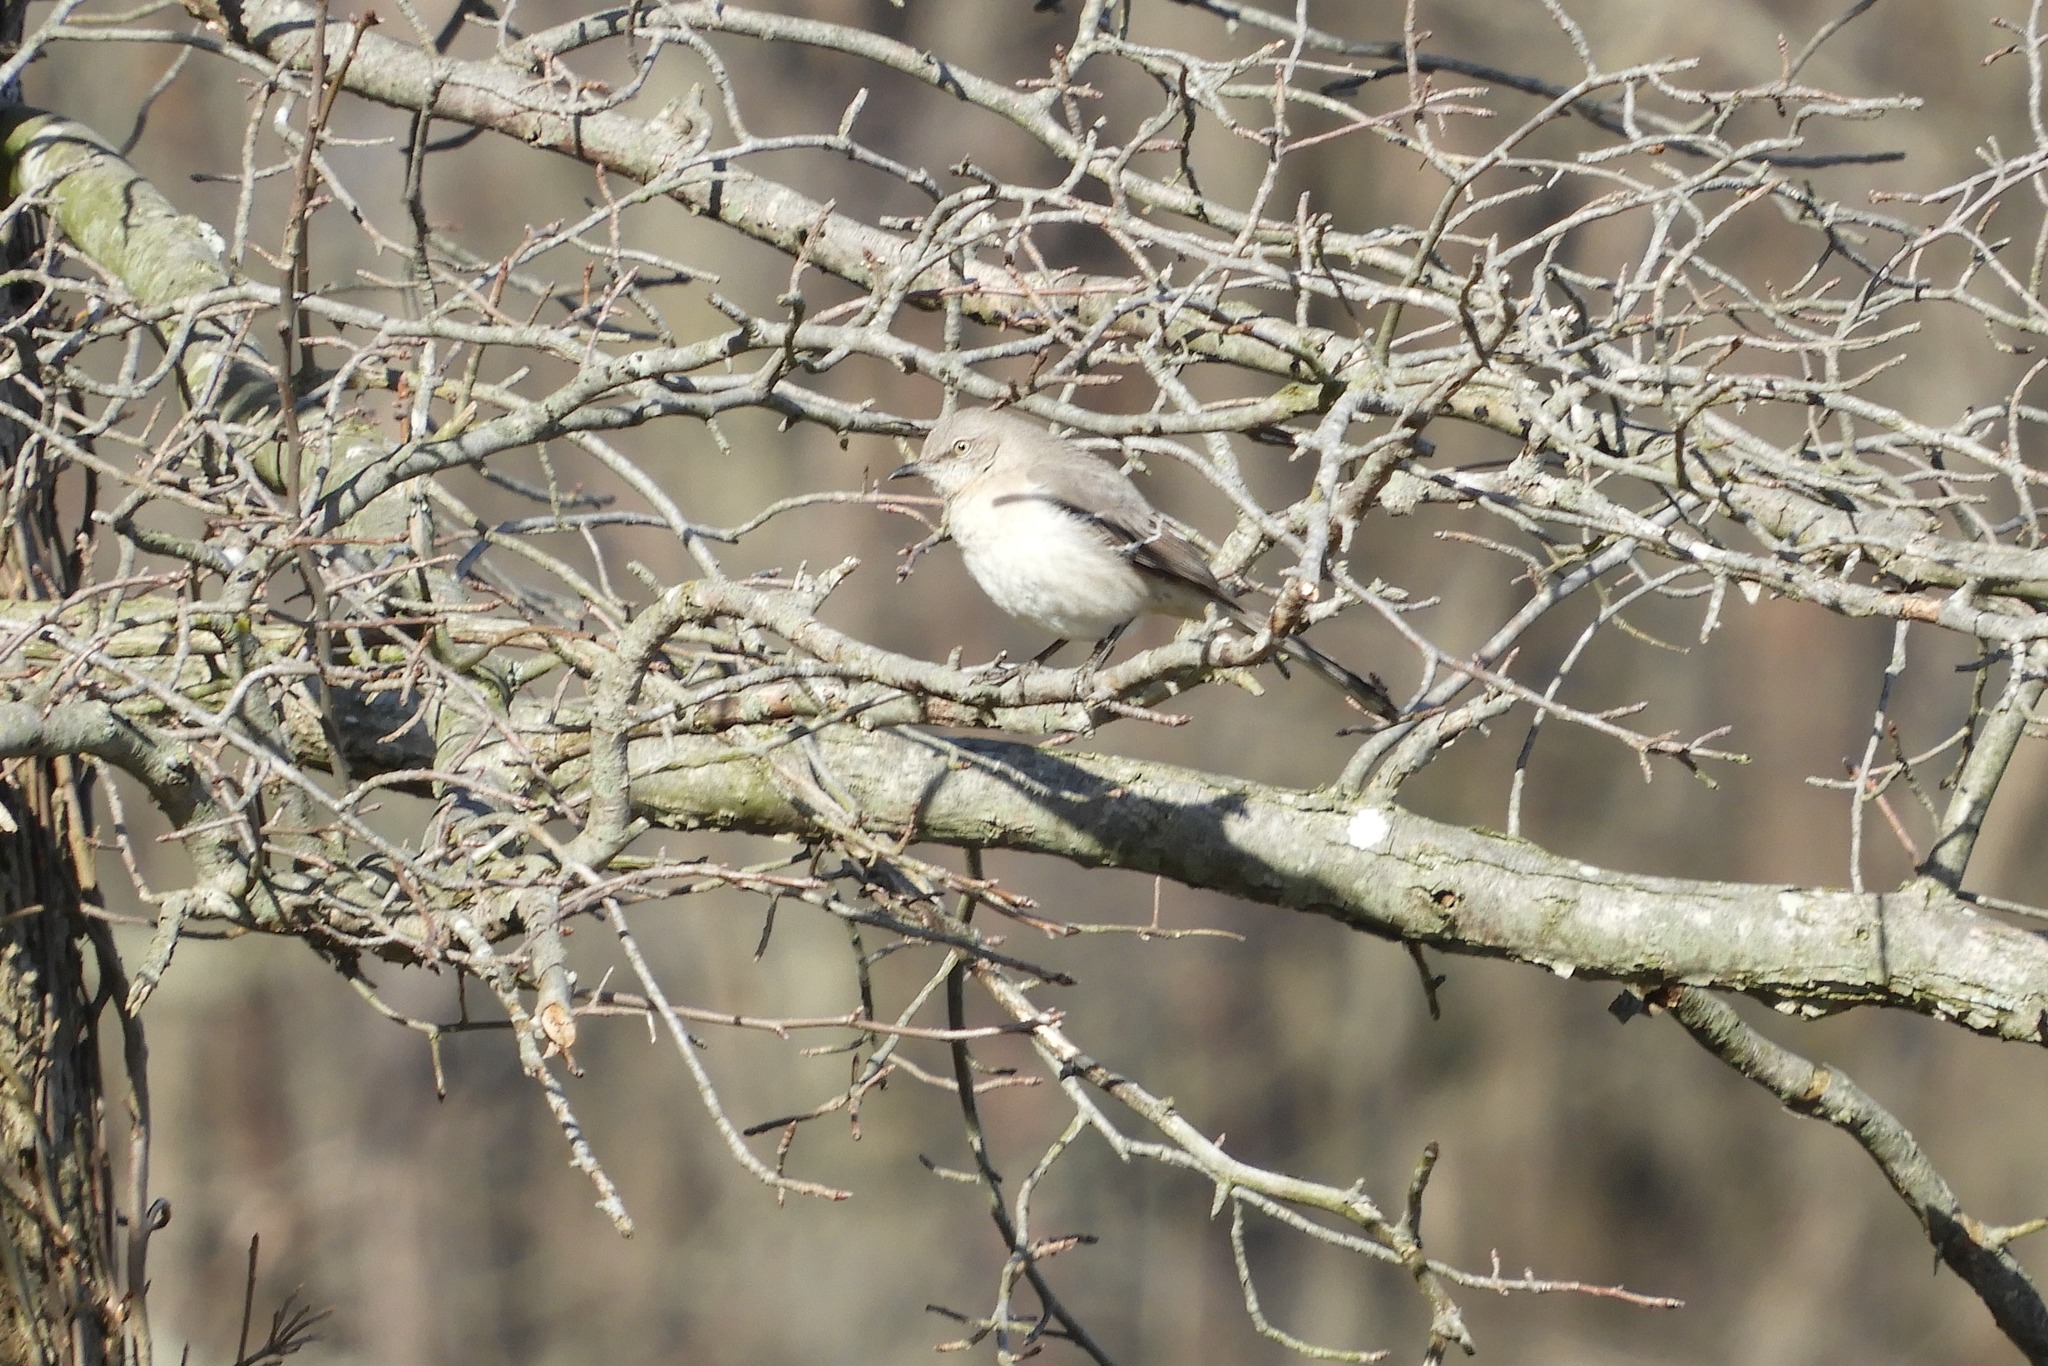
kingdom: Animalia
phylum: Chordata
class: Aves
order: Passeriformes
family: Mimidae
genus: Mimus
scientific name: Mimus polyglottos
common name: Northern mockingbird
